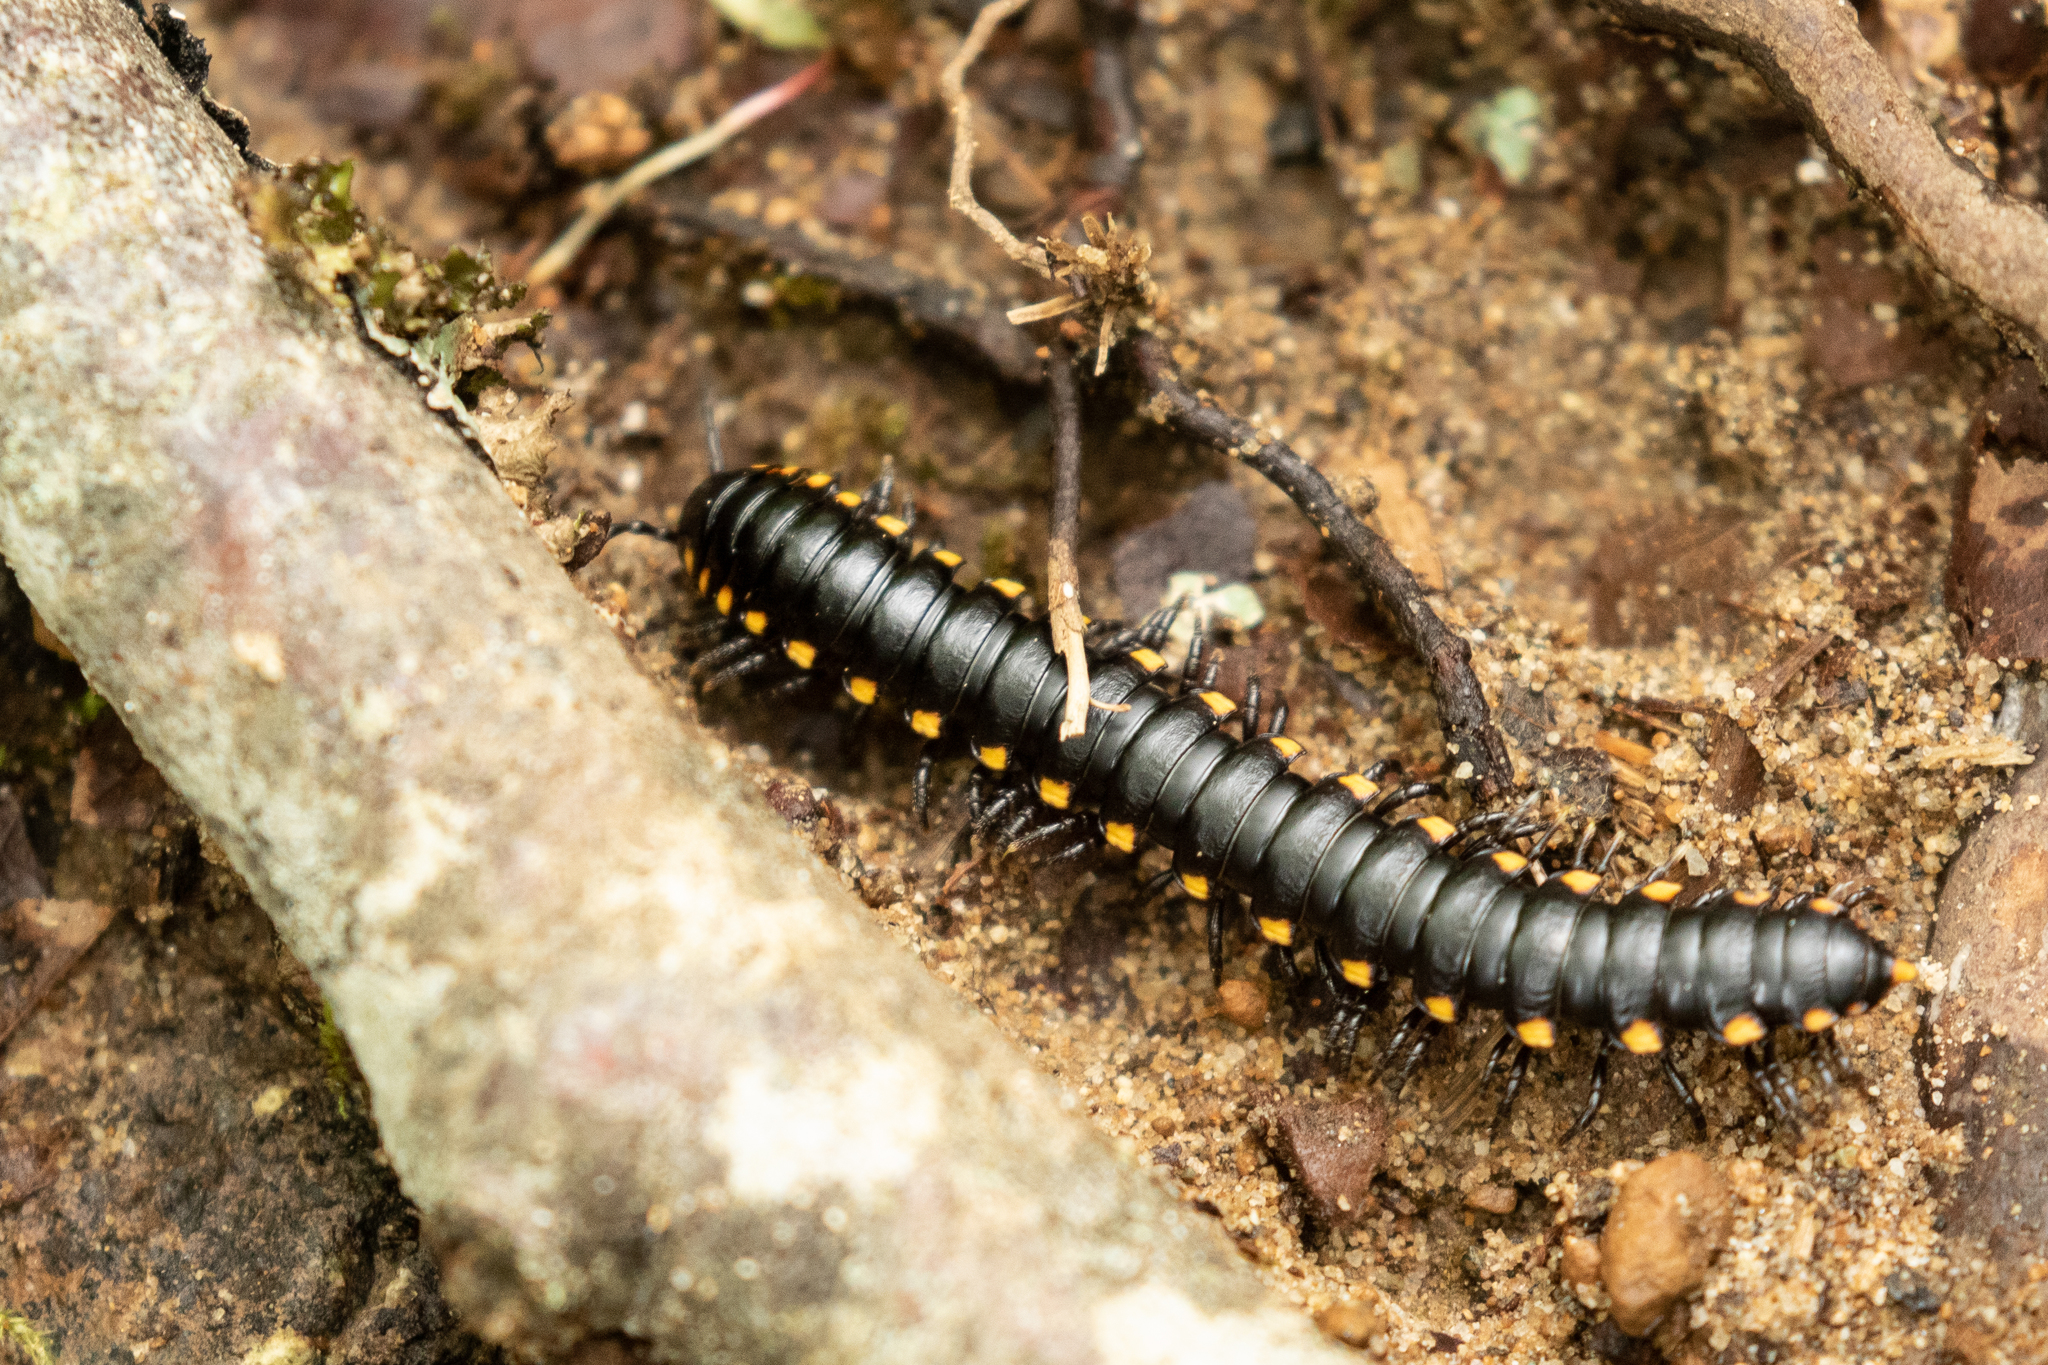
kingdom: Animalia
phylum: Arthropoda
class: Diplopoda
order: Polydesmida
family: Xystodesmidae
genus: Harpaphe
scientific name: Harpaphe haydeniana
